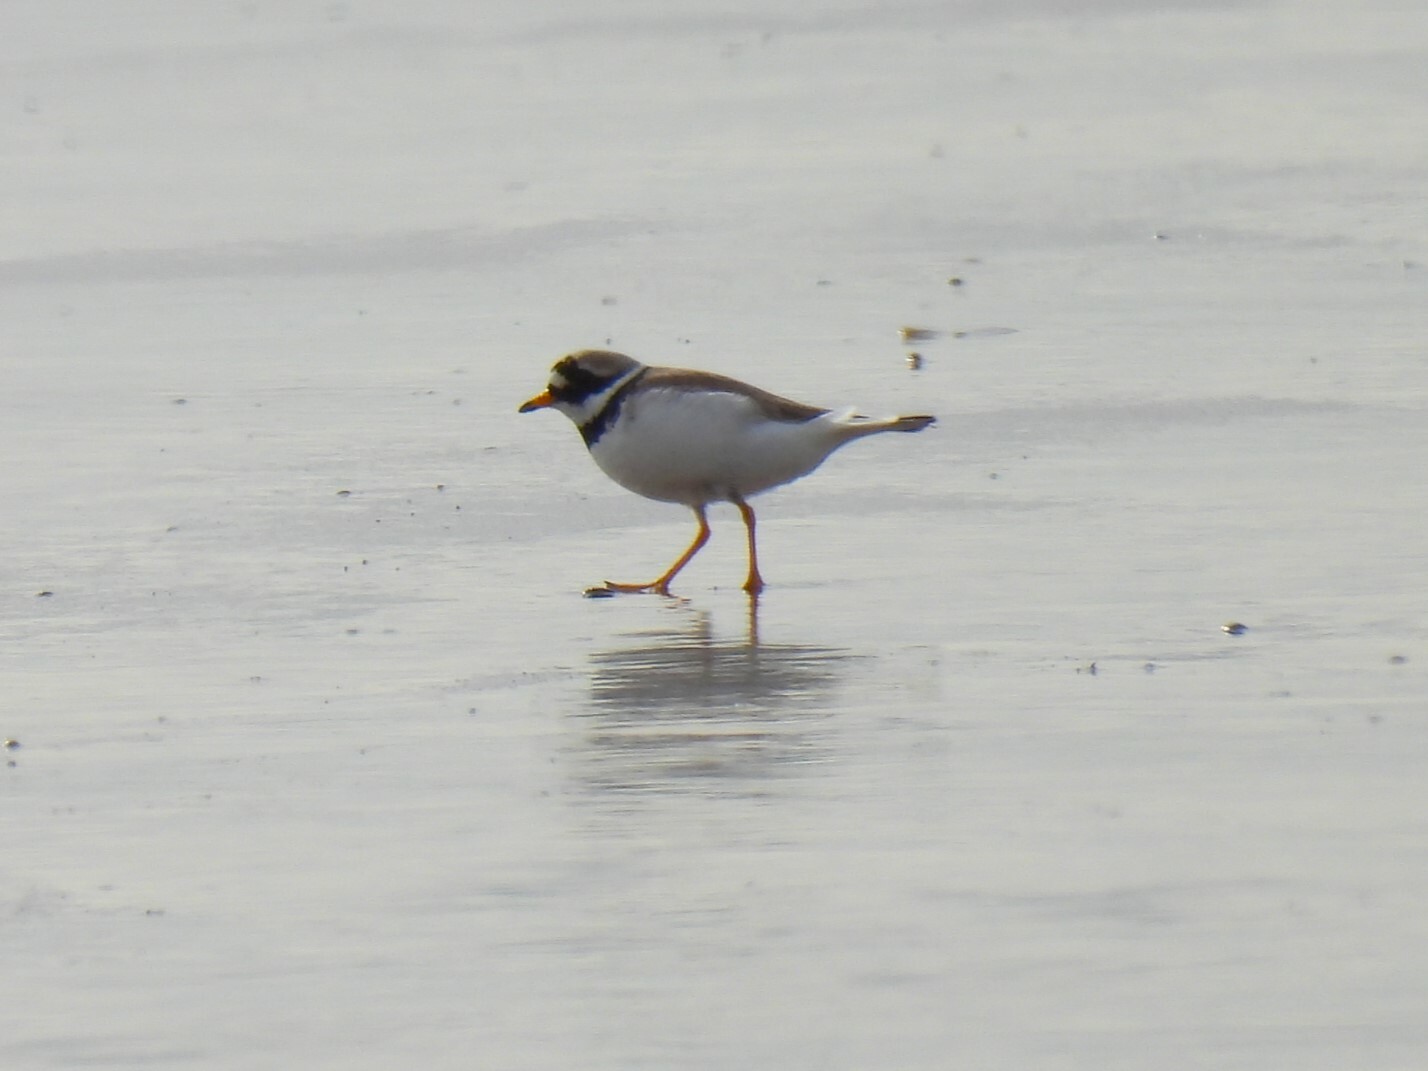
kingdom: Animalia
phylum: Chordata
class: Aves
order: Charadriiformes
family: Charadriidae
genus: Charadrius
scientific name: Charadrius hiaticula
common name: Common ringed plover
